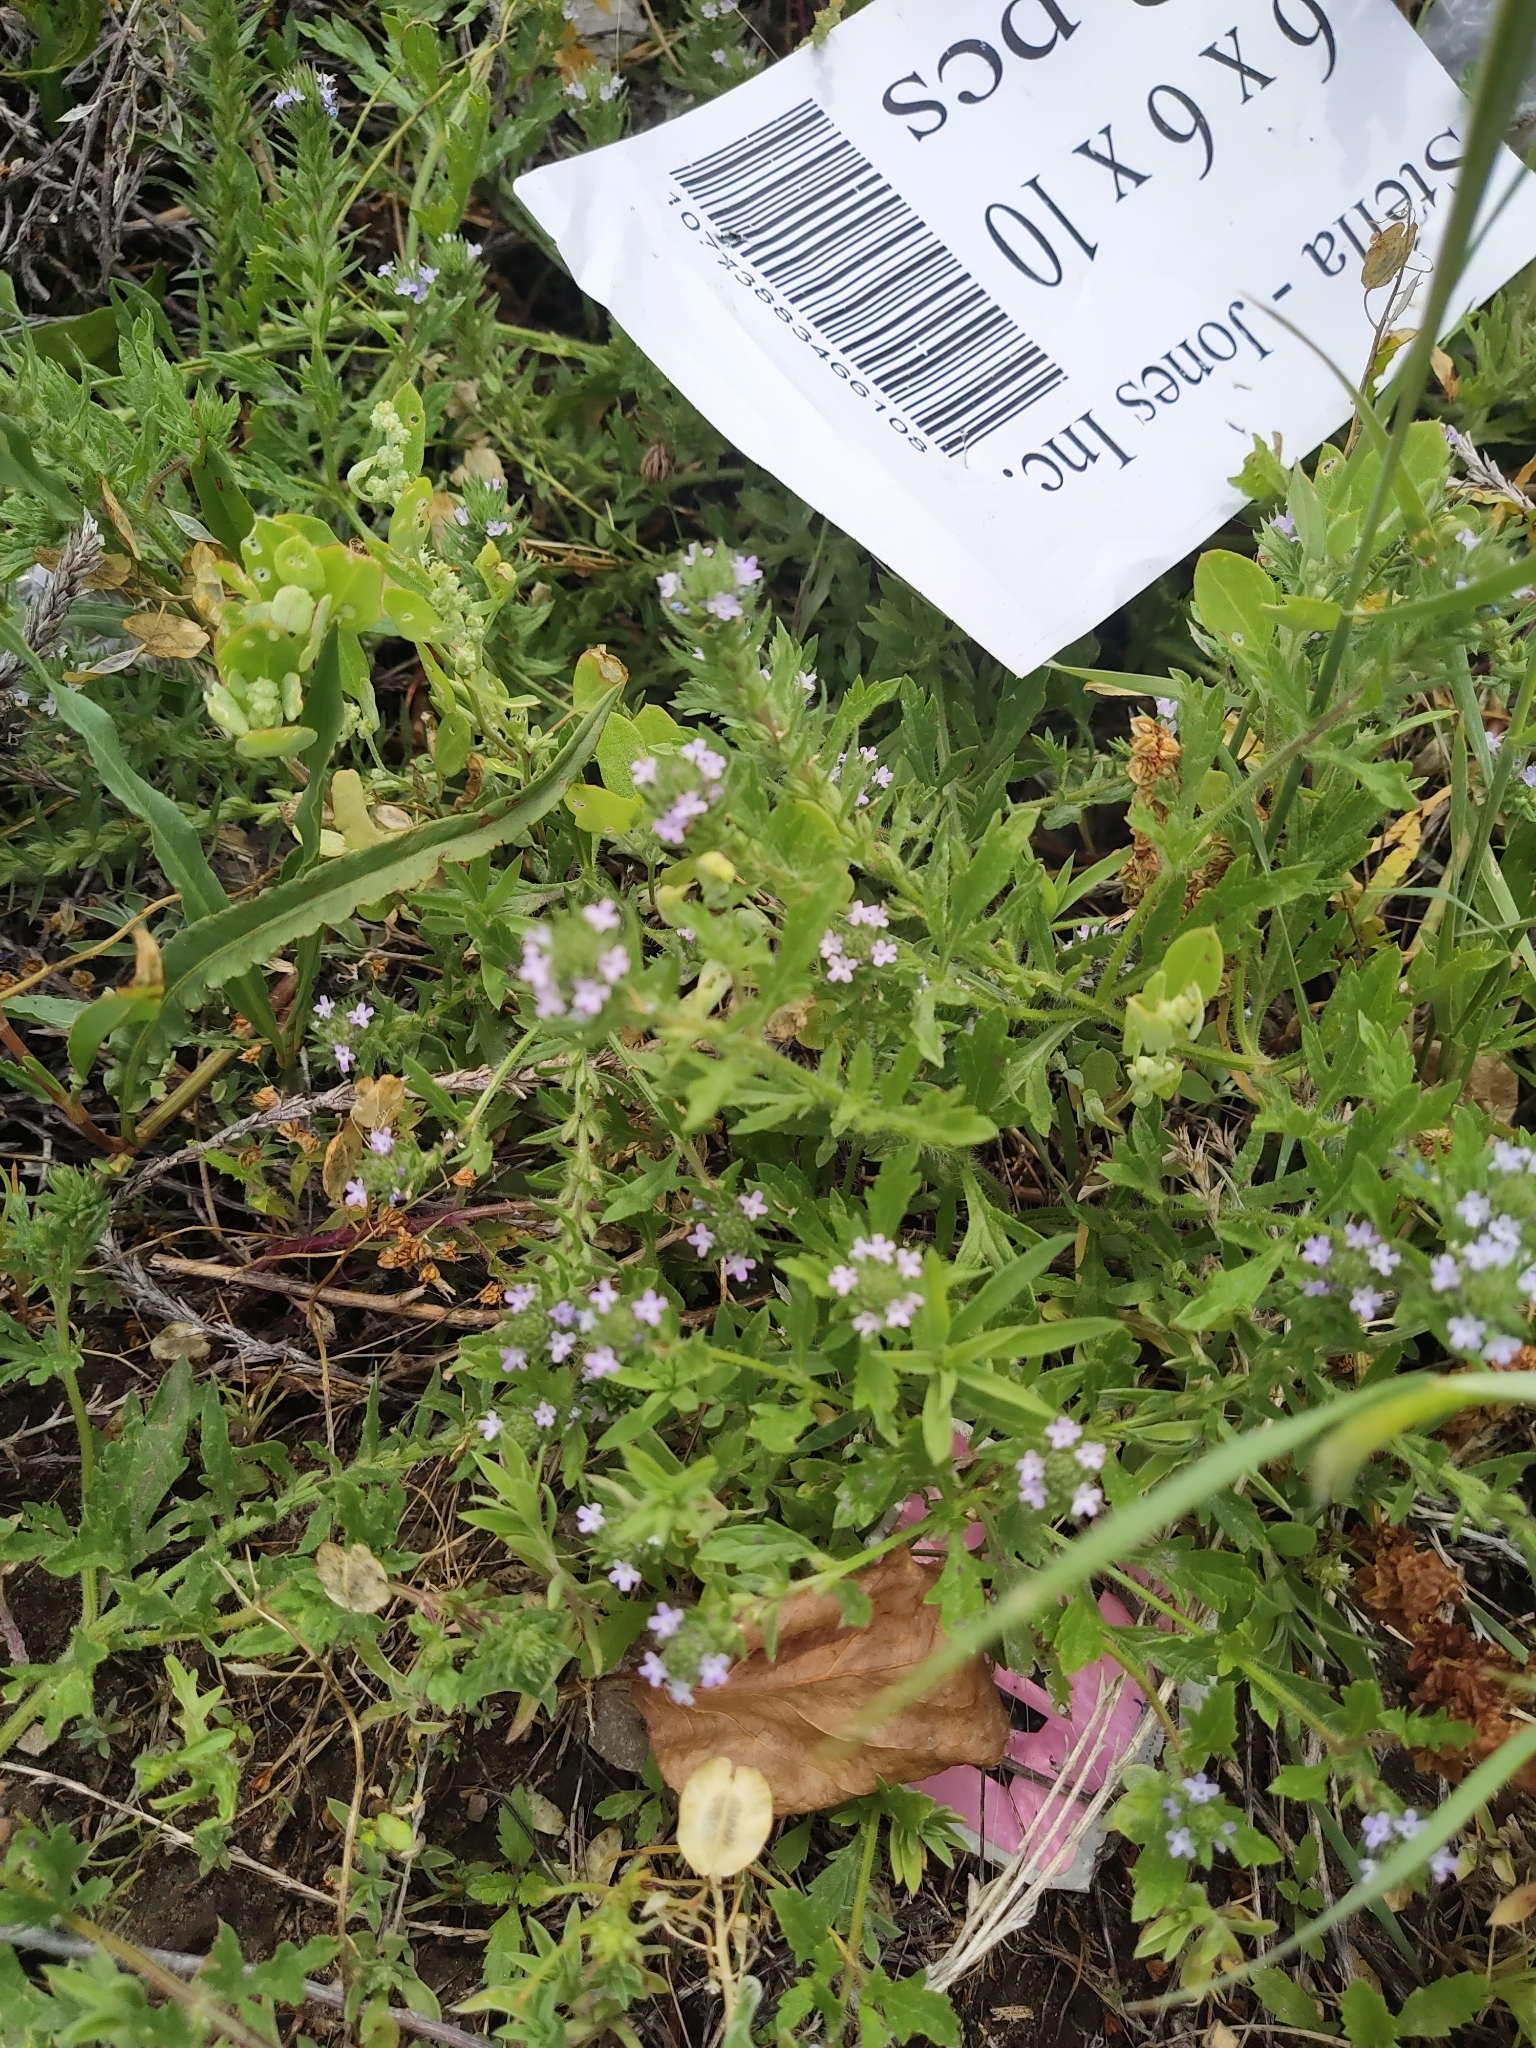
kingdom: Plantae
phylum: Tracheophyta
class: Magnoliopsida
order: Lamiales
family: Verbenaceae
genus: Verbena
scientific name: Verbena bracteata
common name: Bracted vervain
